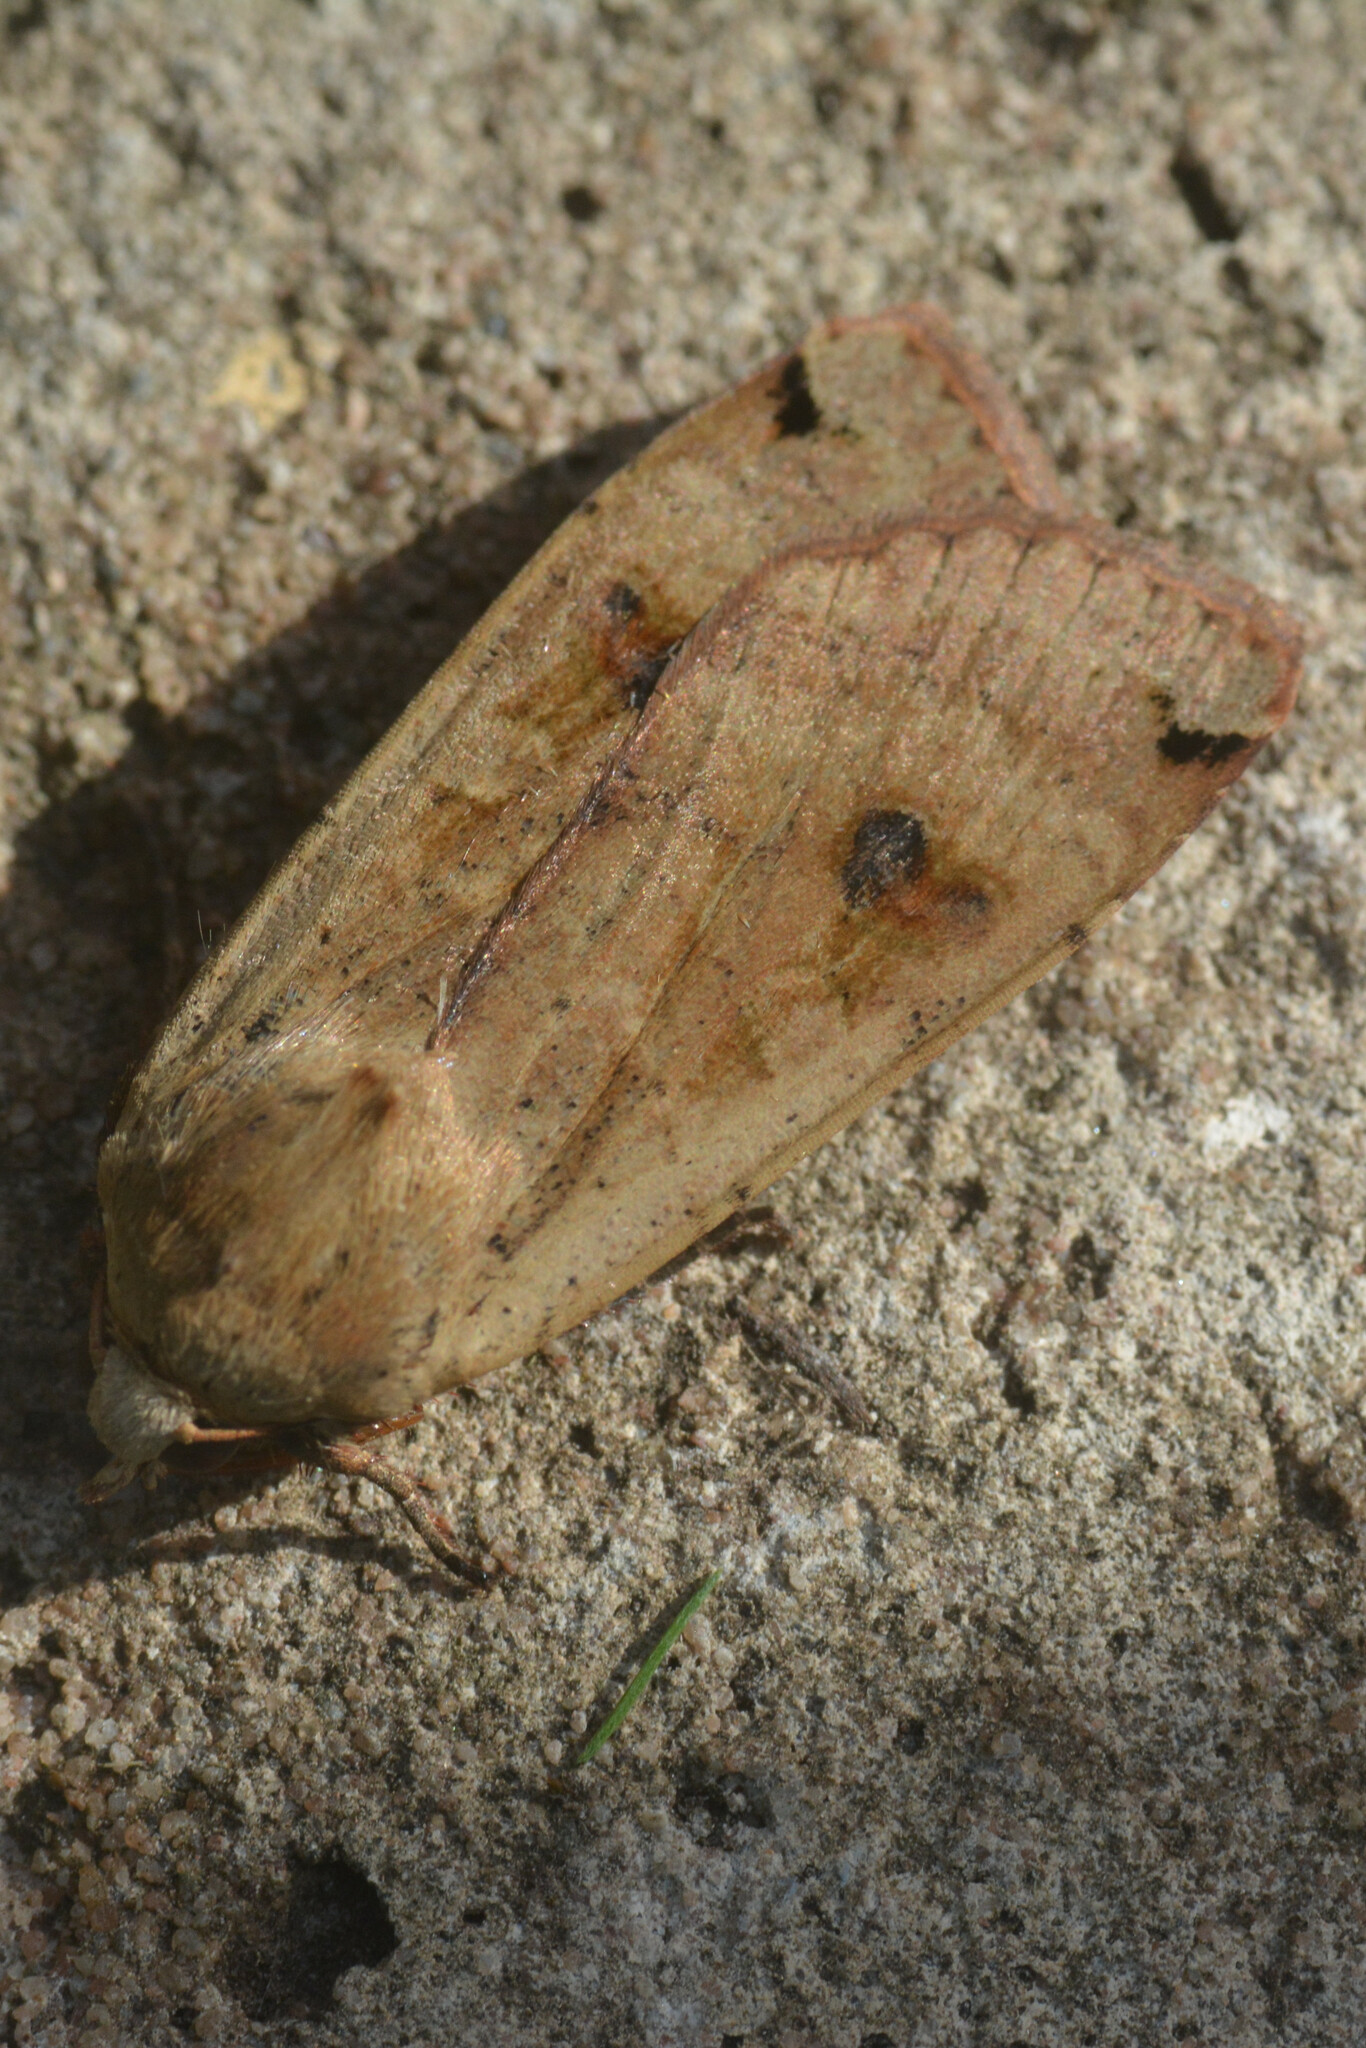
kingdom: Animalia
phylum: Arthropoda
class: Insecta
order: Lepidoptera
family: Noctuidae
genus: Noctua
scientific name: Noctua pronuba
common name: Large yellow underwing
